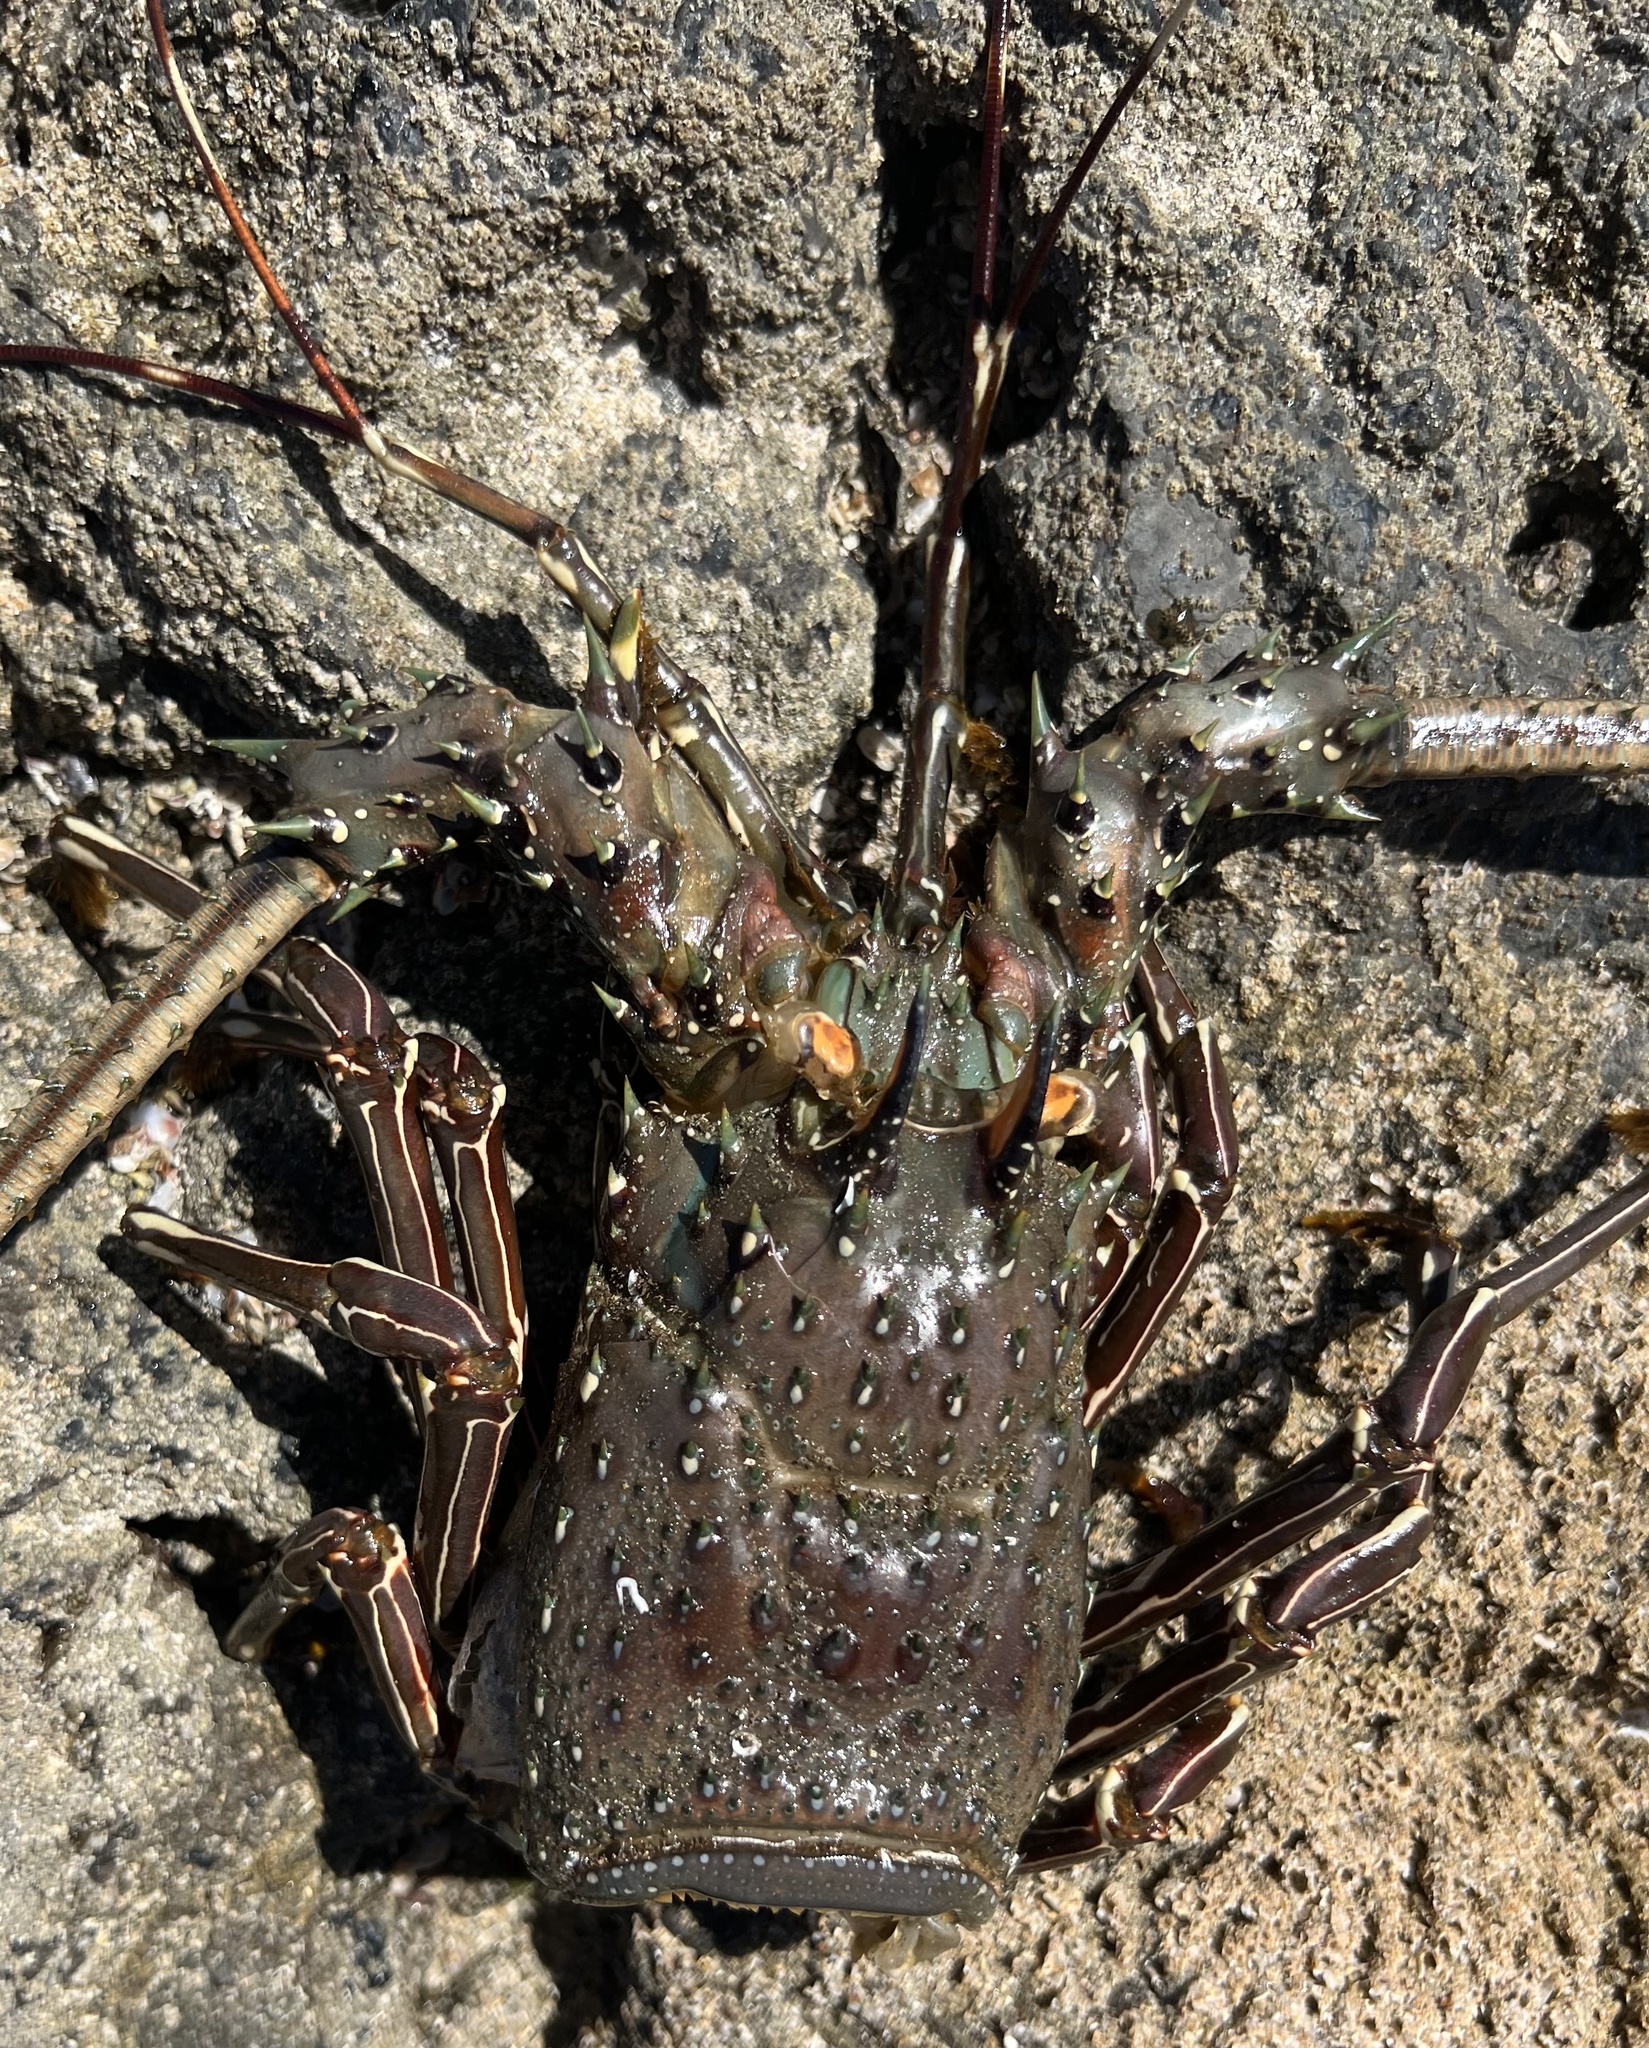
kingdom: Animalia
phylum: Arthropoda
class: Malacostraca
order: Decapoda
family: Palinuridae
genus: Panulirus
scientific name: Panulirus gracilis
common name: Green spiny lobster
